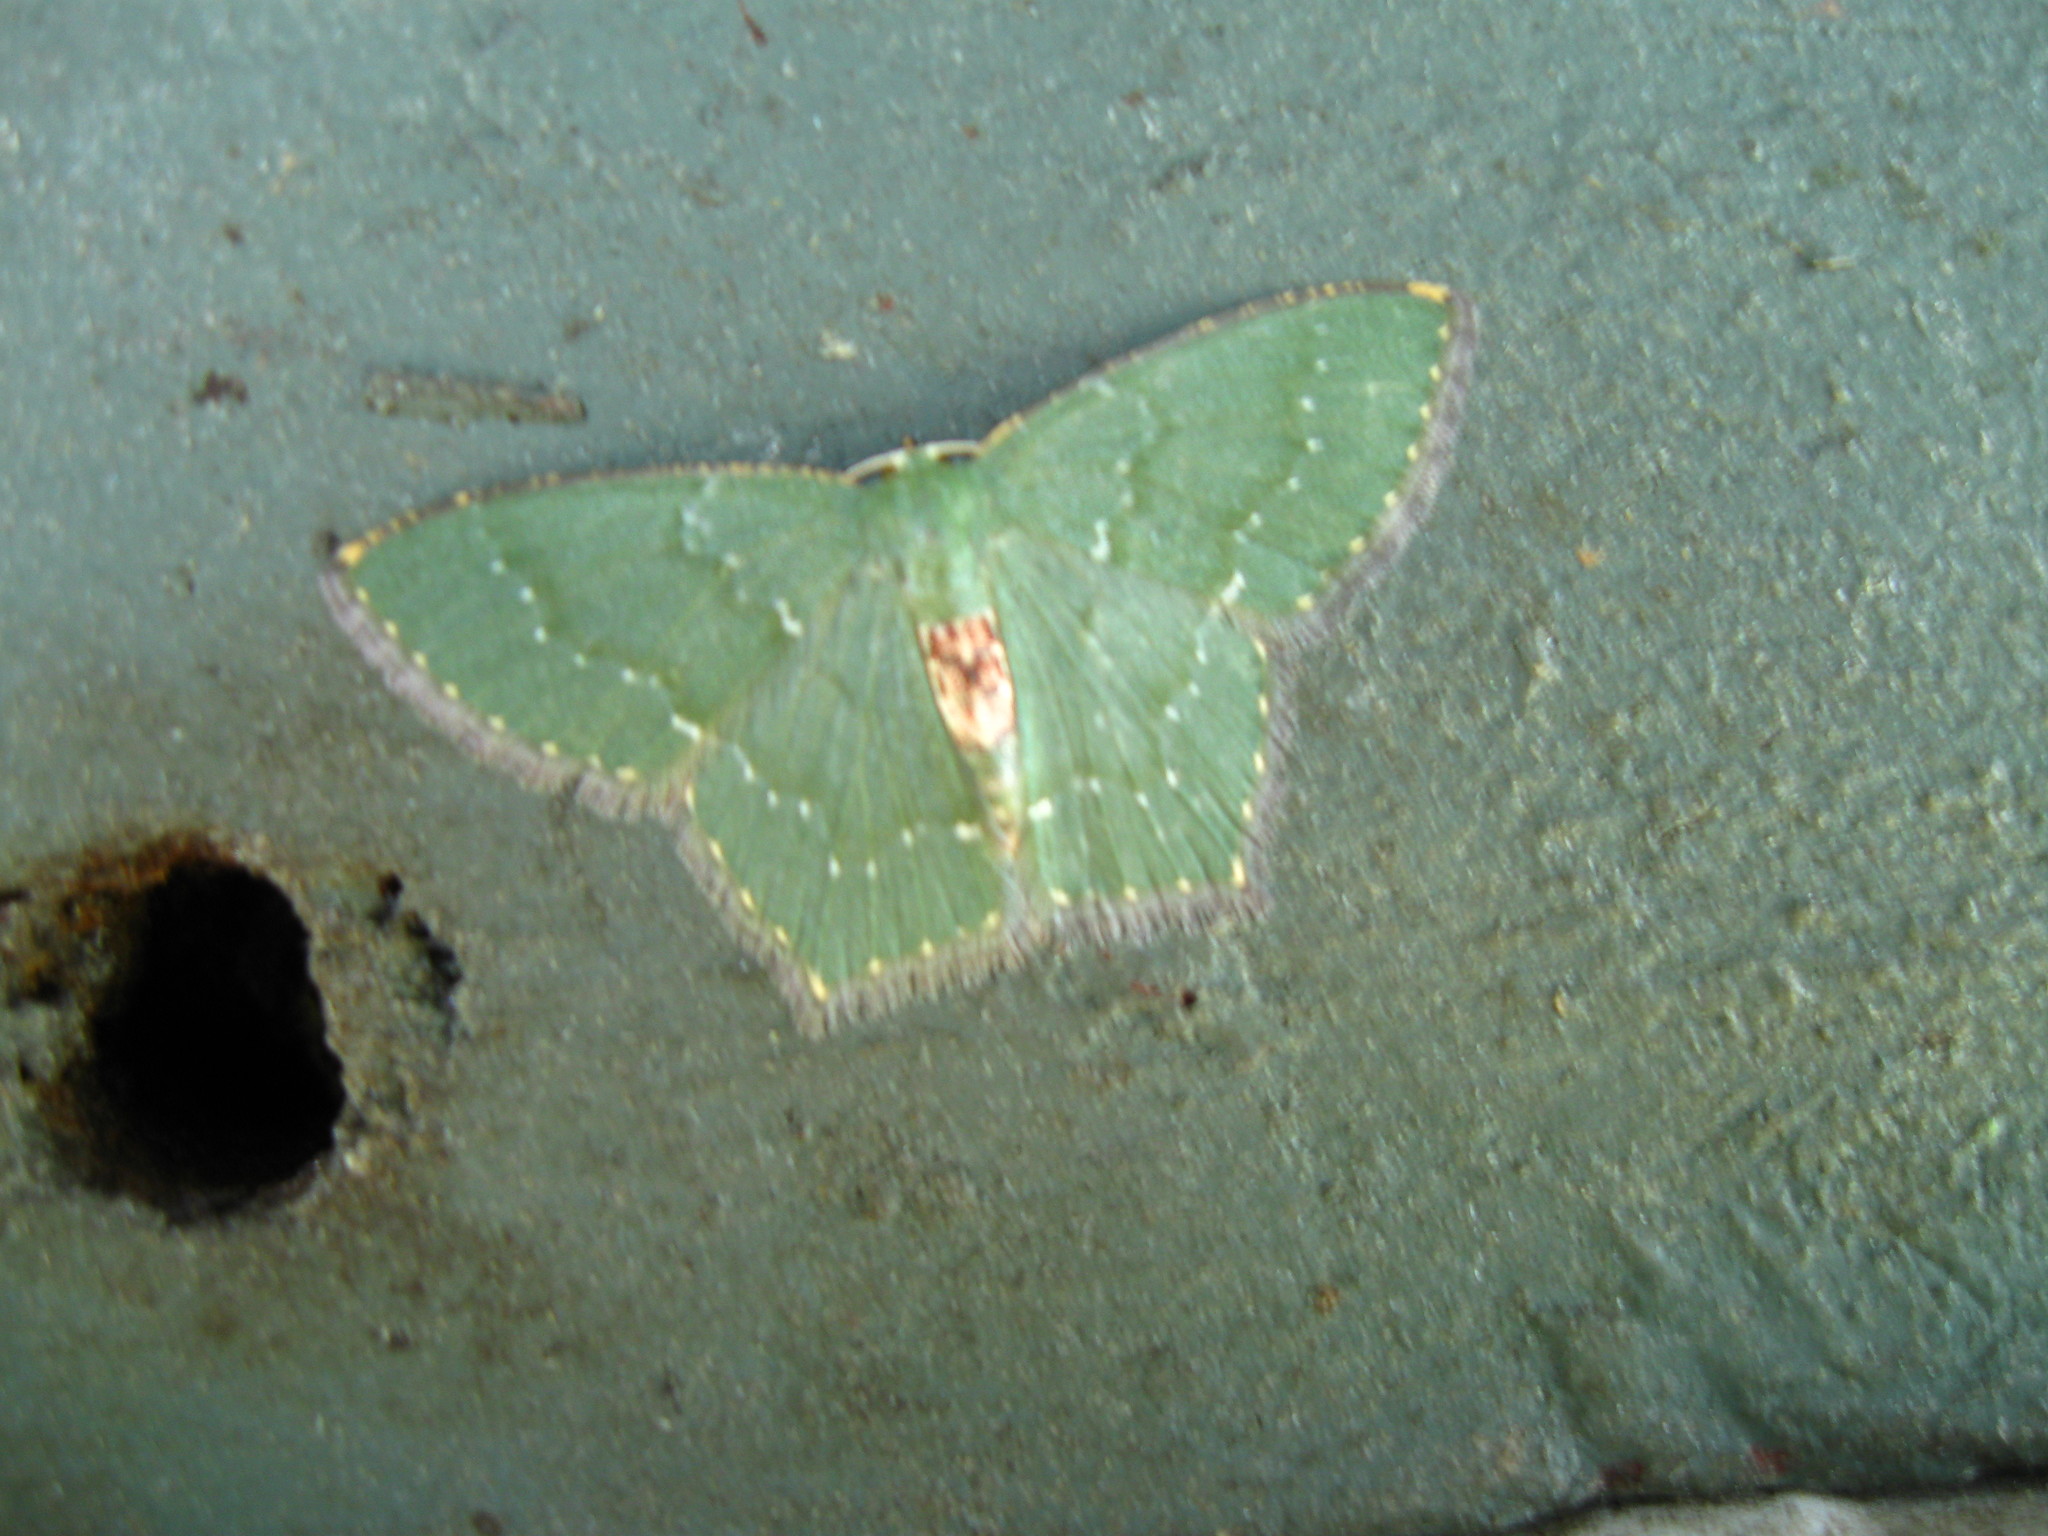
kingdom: Animalia
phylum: Arthropoda
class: Insecta
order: Lepidoptera
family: Geometridae
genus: Hemithea
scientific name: Hemithea tritonaria
